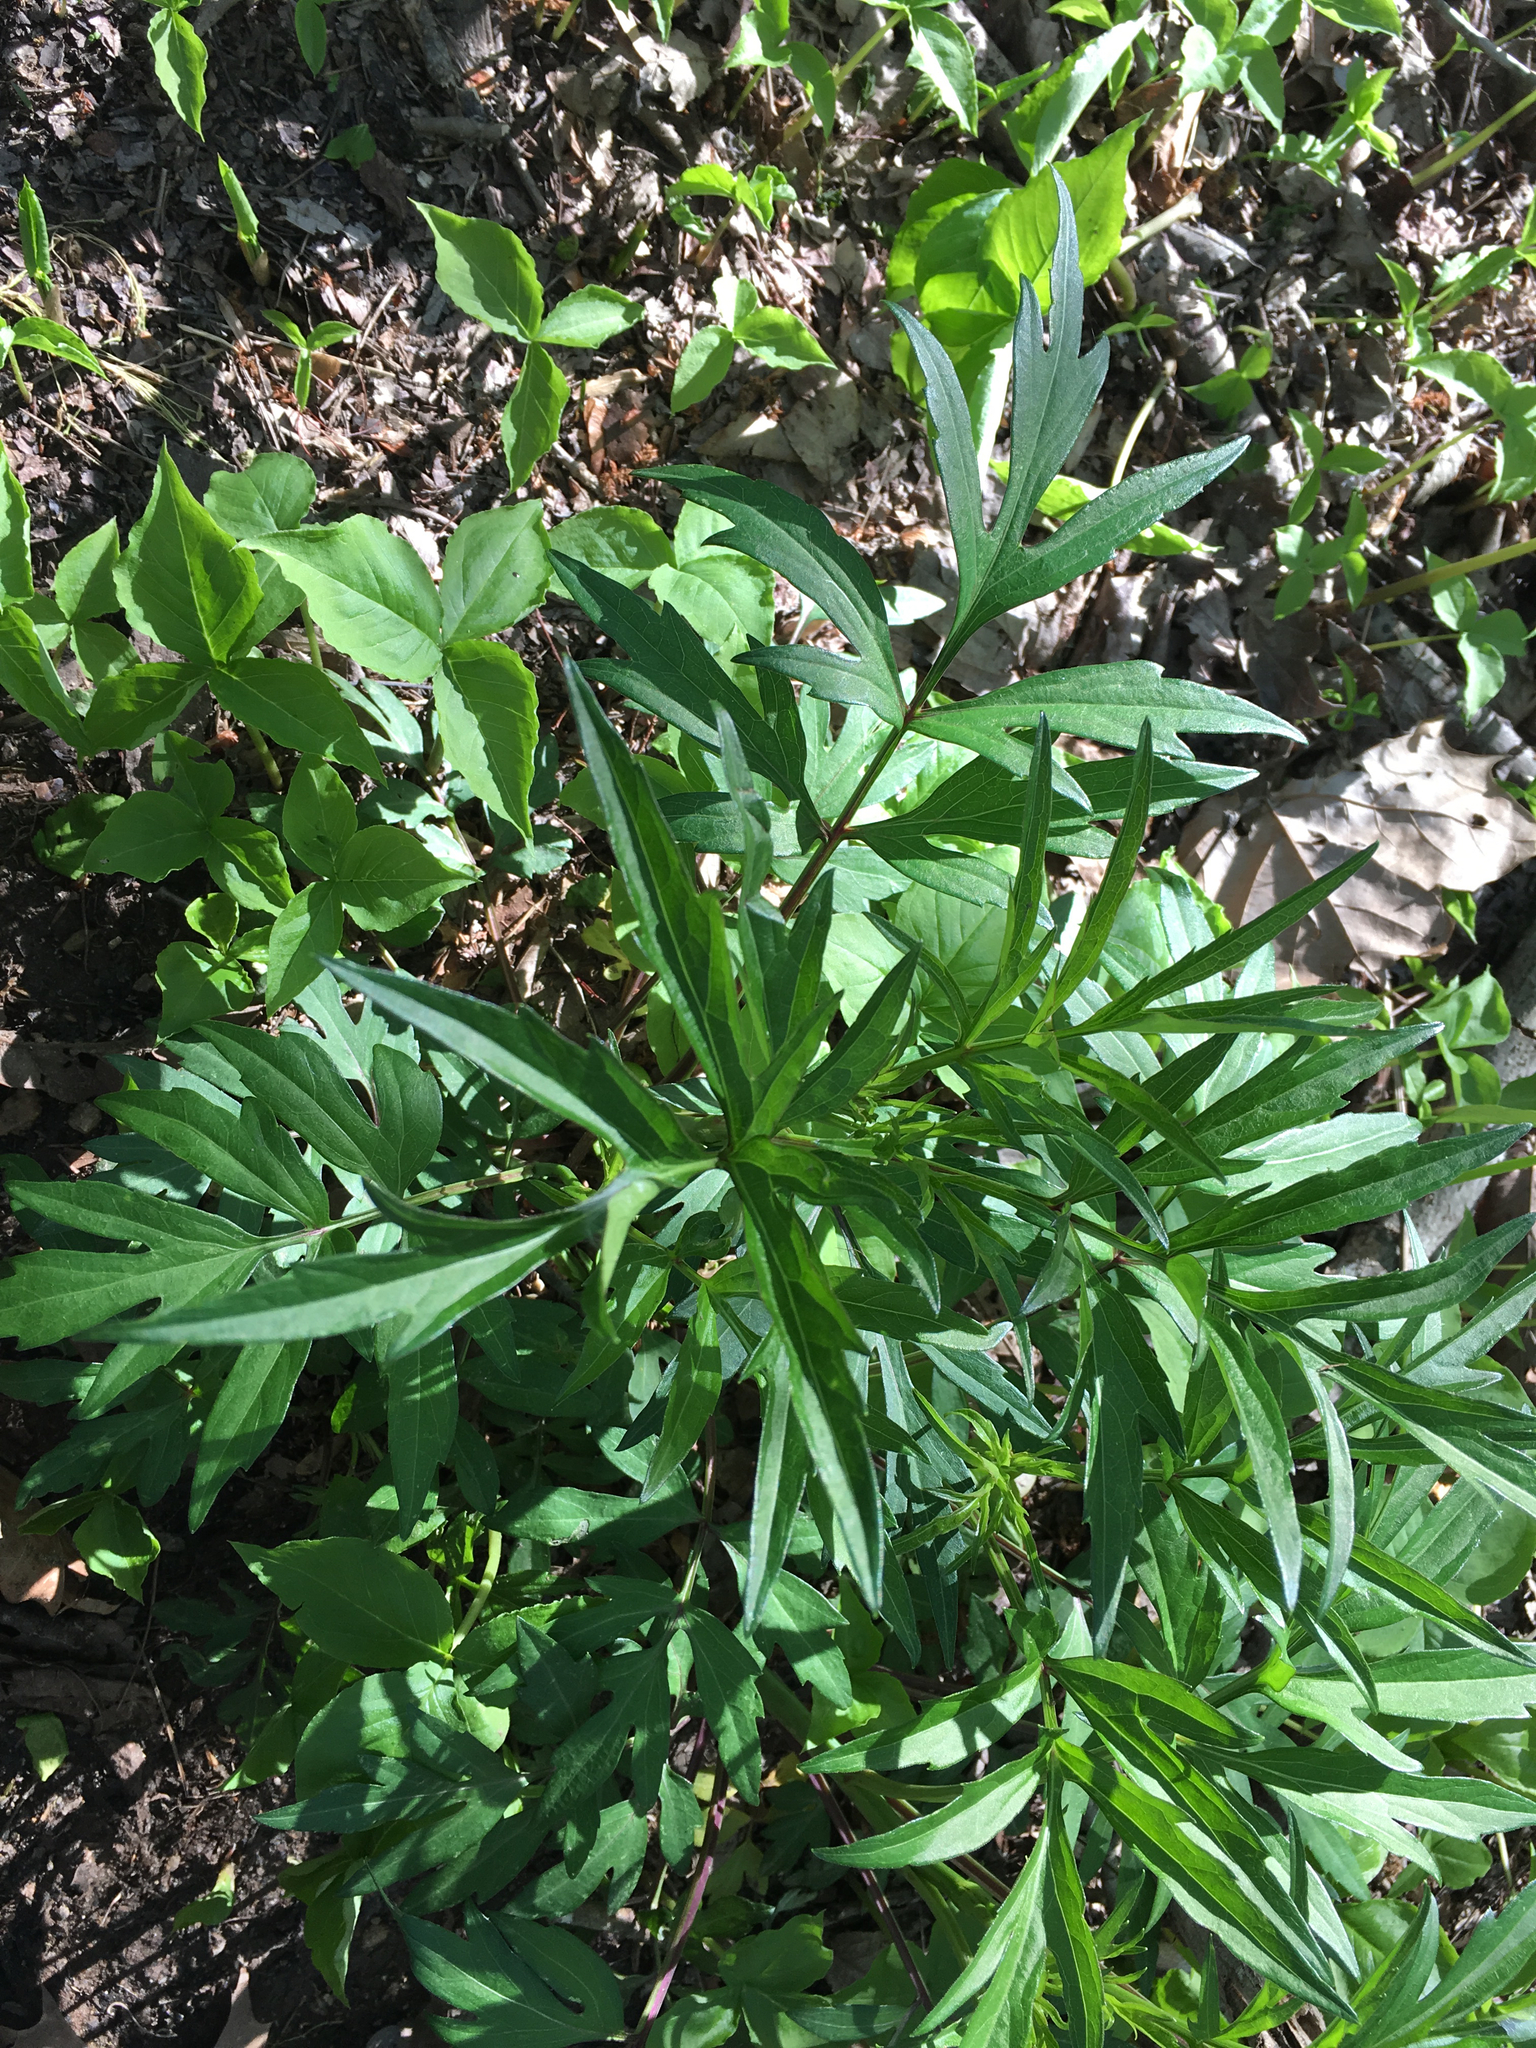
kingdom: Plantae
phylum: Tracheophyta
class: Magnoliopsida
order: Asterales
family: Asteraceae
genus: Rudbeckia
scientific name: Rudbeckia laciniata
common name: Coneflower
